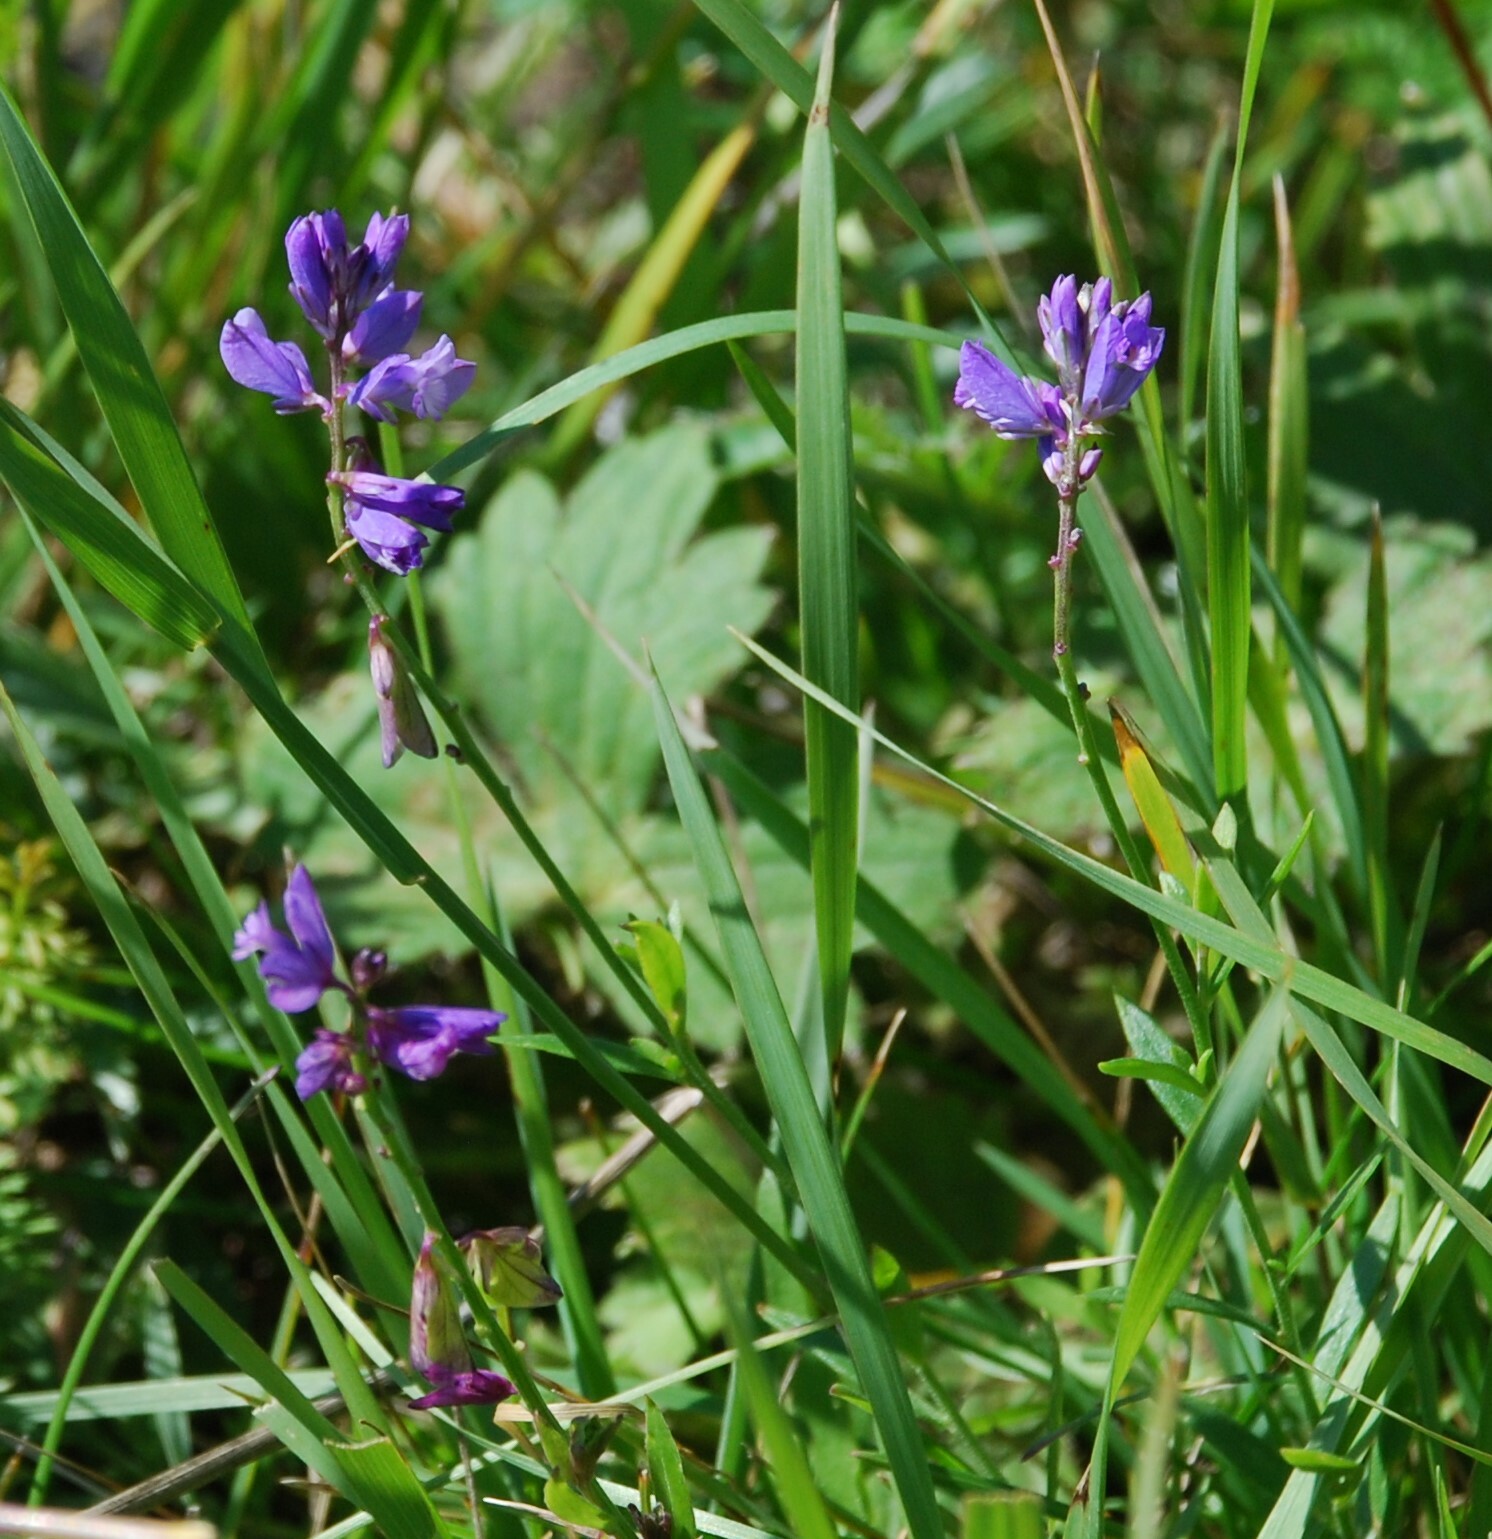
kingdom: Plantae
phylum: Tracheophyta
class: Magnoliopsida
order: Fabales
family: Polygalaceae
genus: Polygala
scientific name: Polygala comosa
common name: Tufted milkwort
